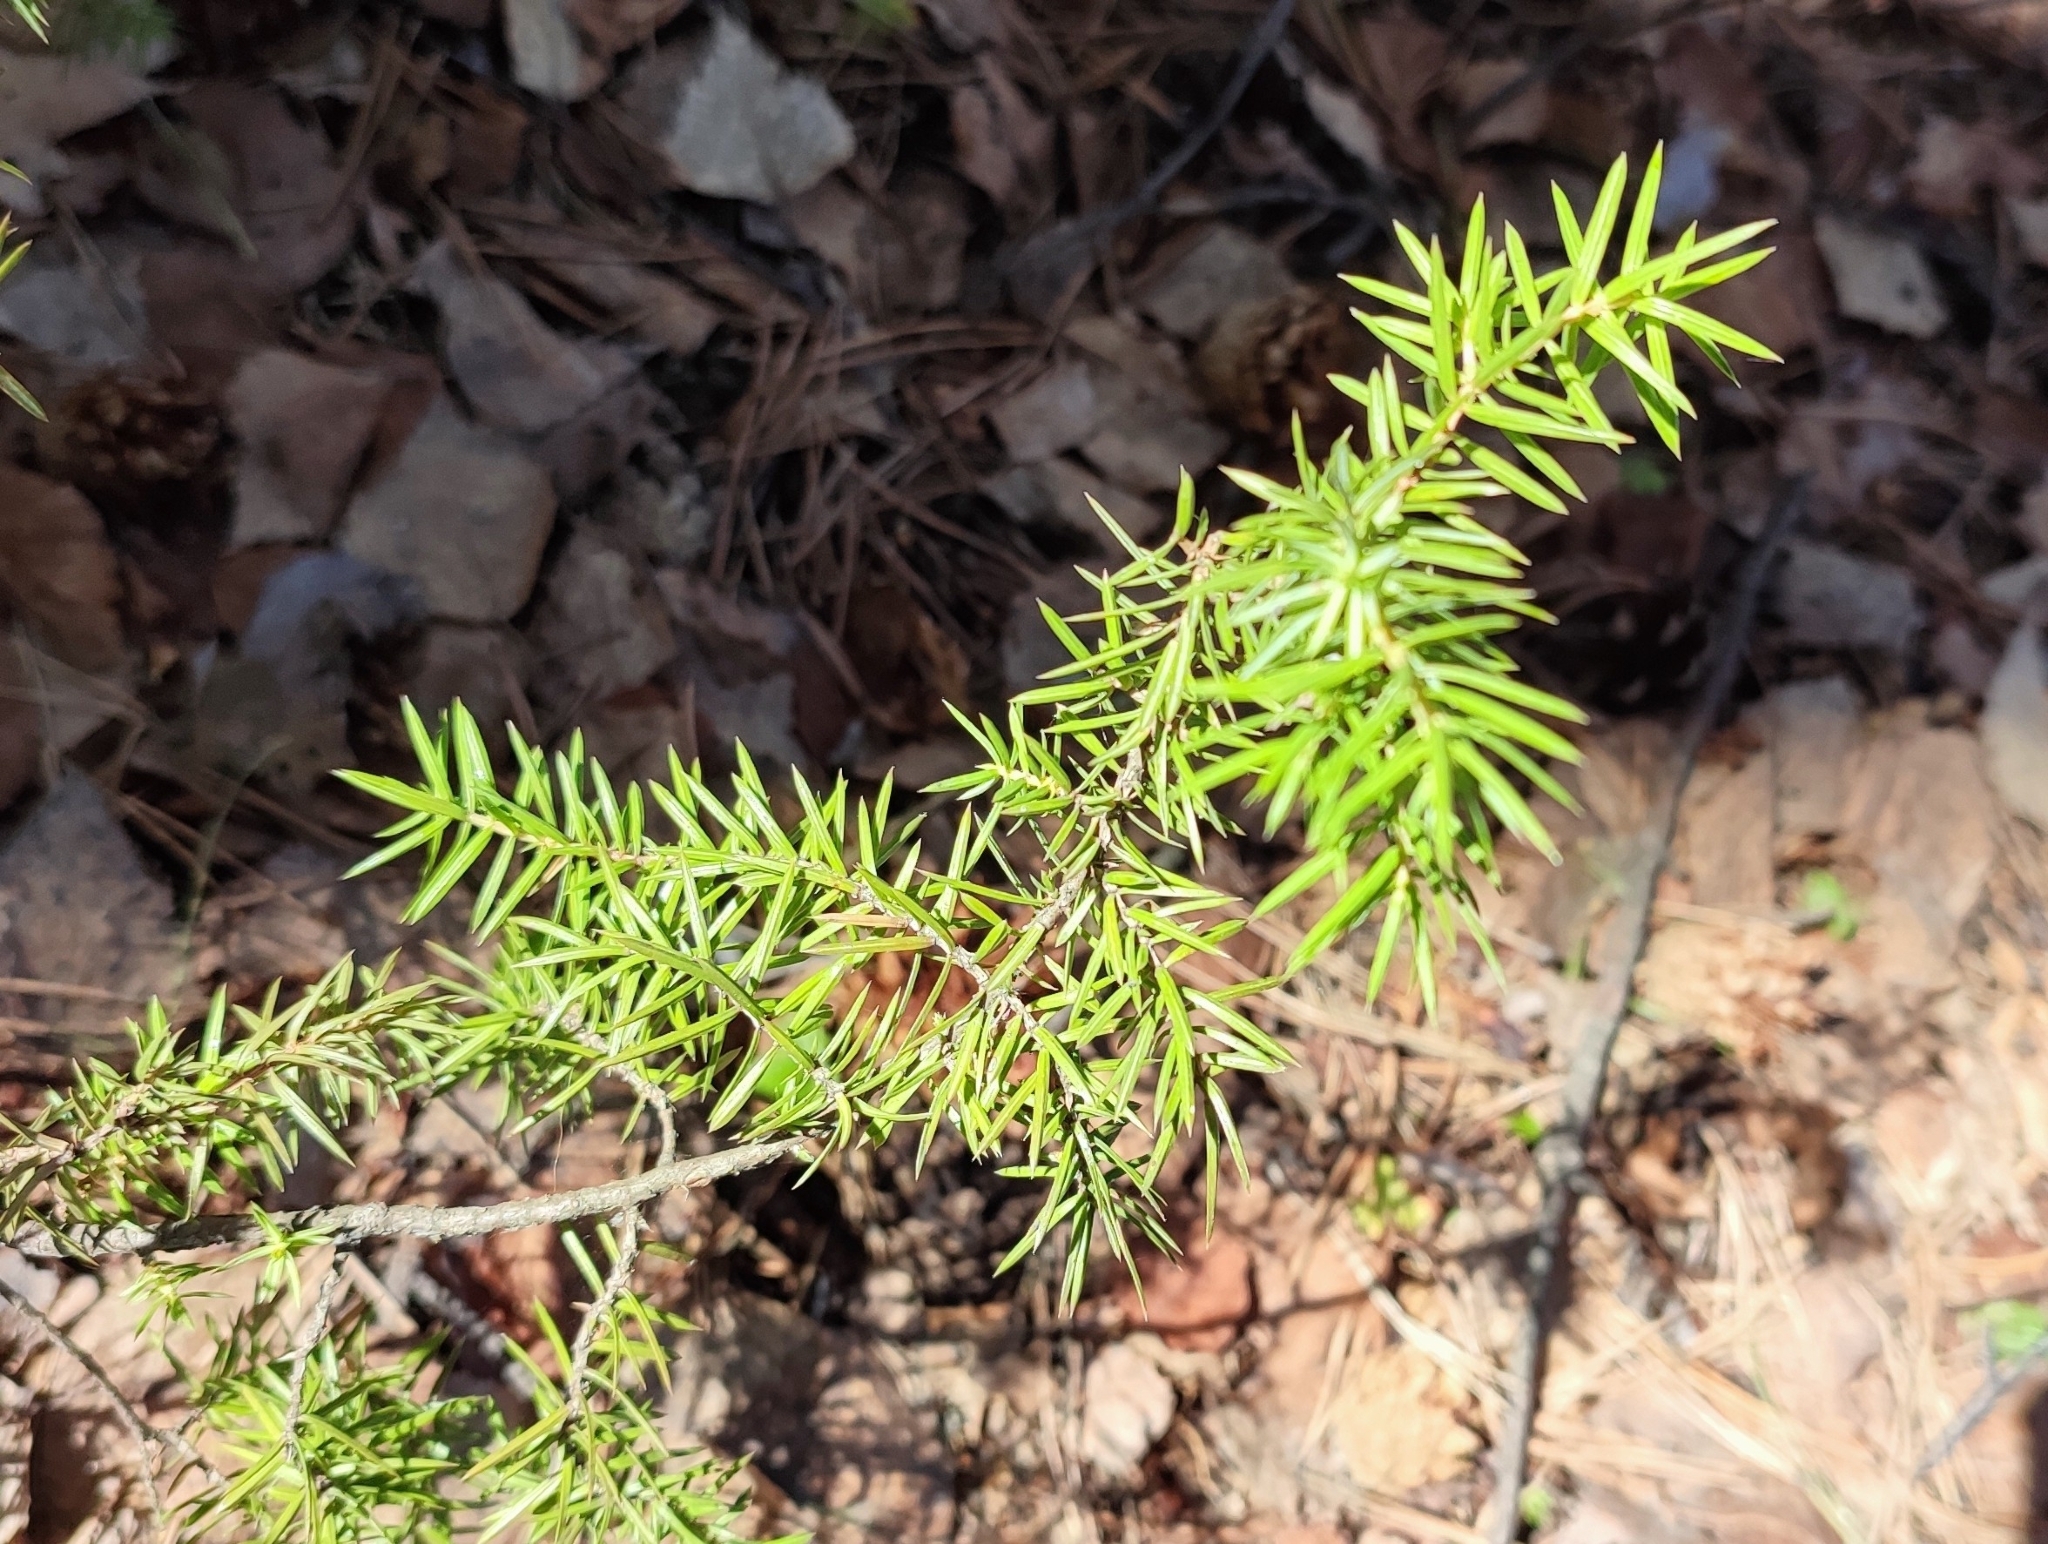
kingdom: Plantae
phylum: Tracheophyta
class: Pinopsida
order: Pinales
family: Cupressaceae
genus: Juniperus
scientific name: Juniperus communis
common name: Common juniper
